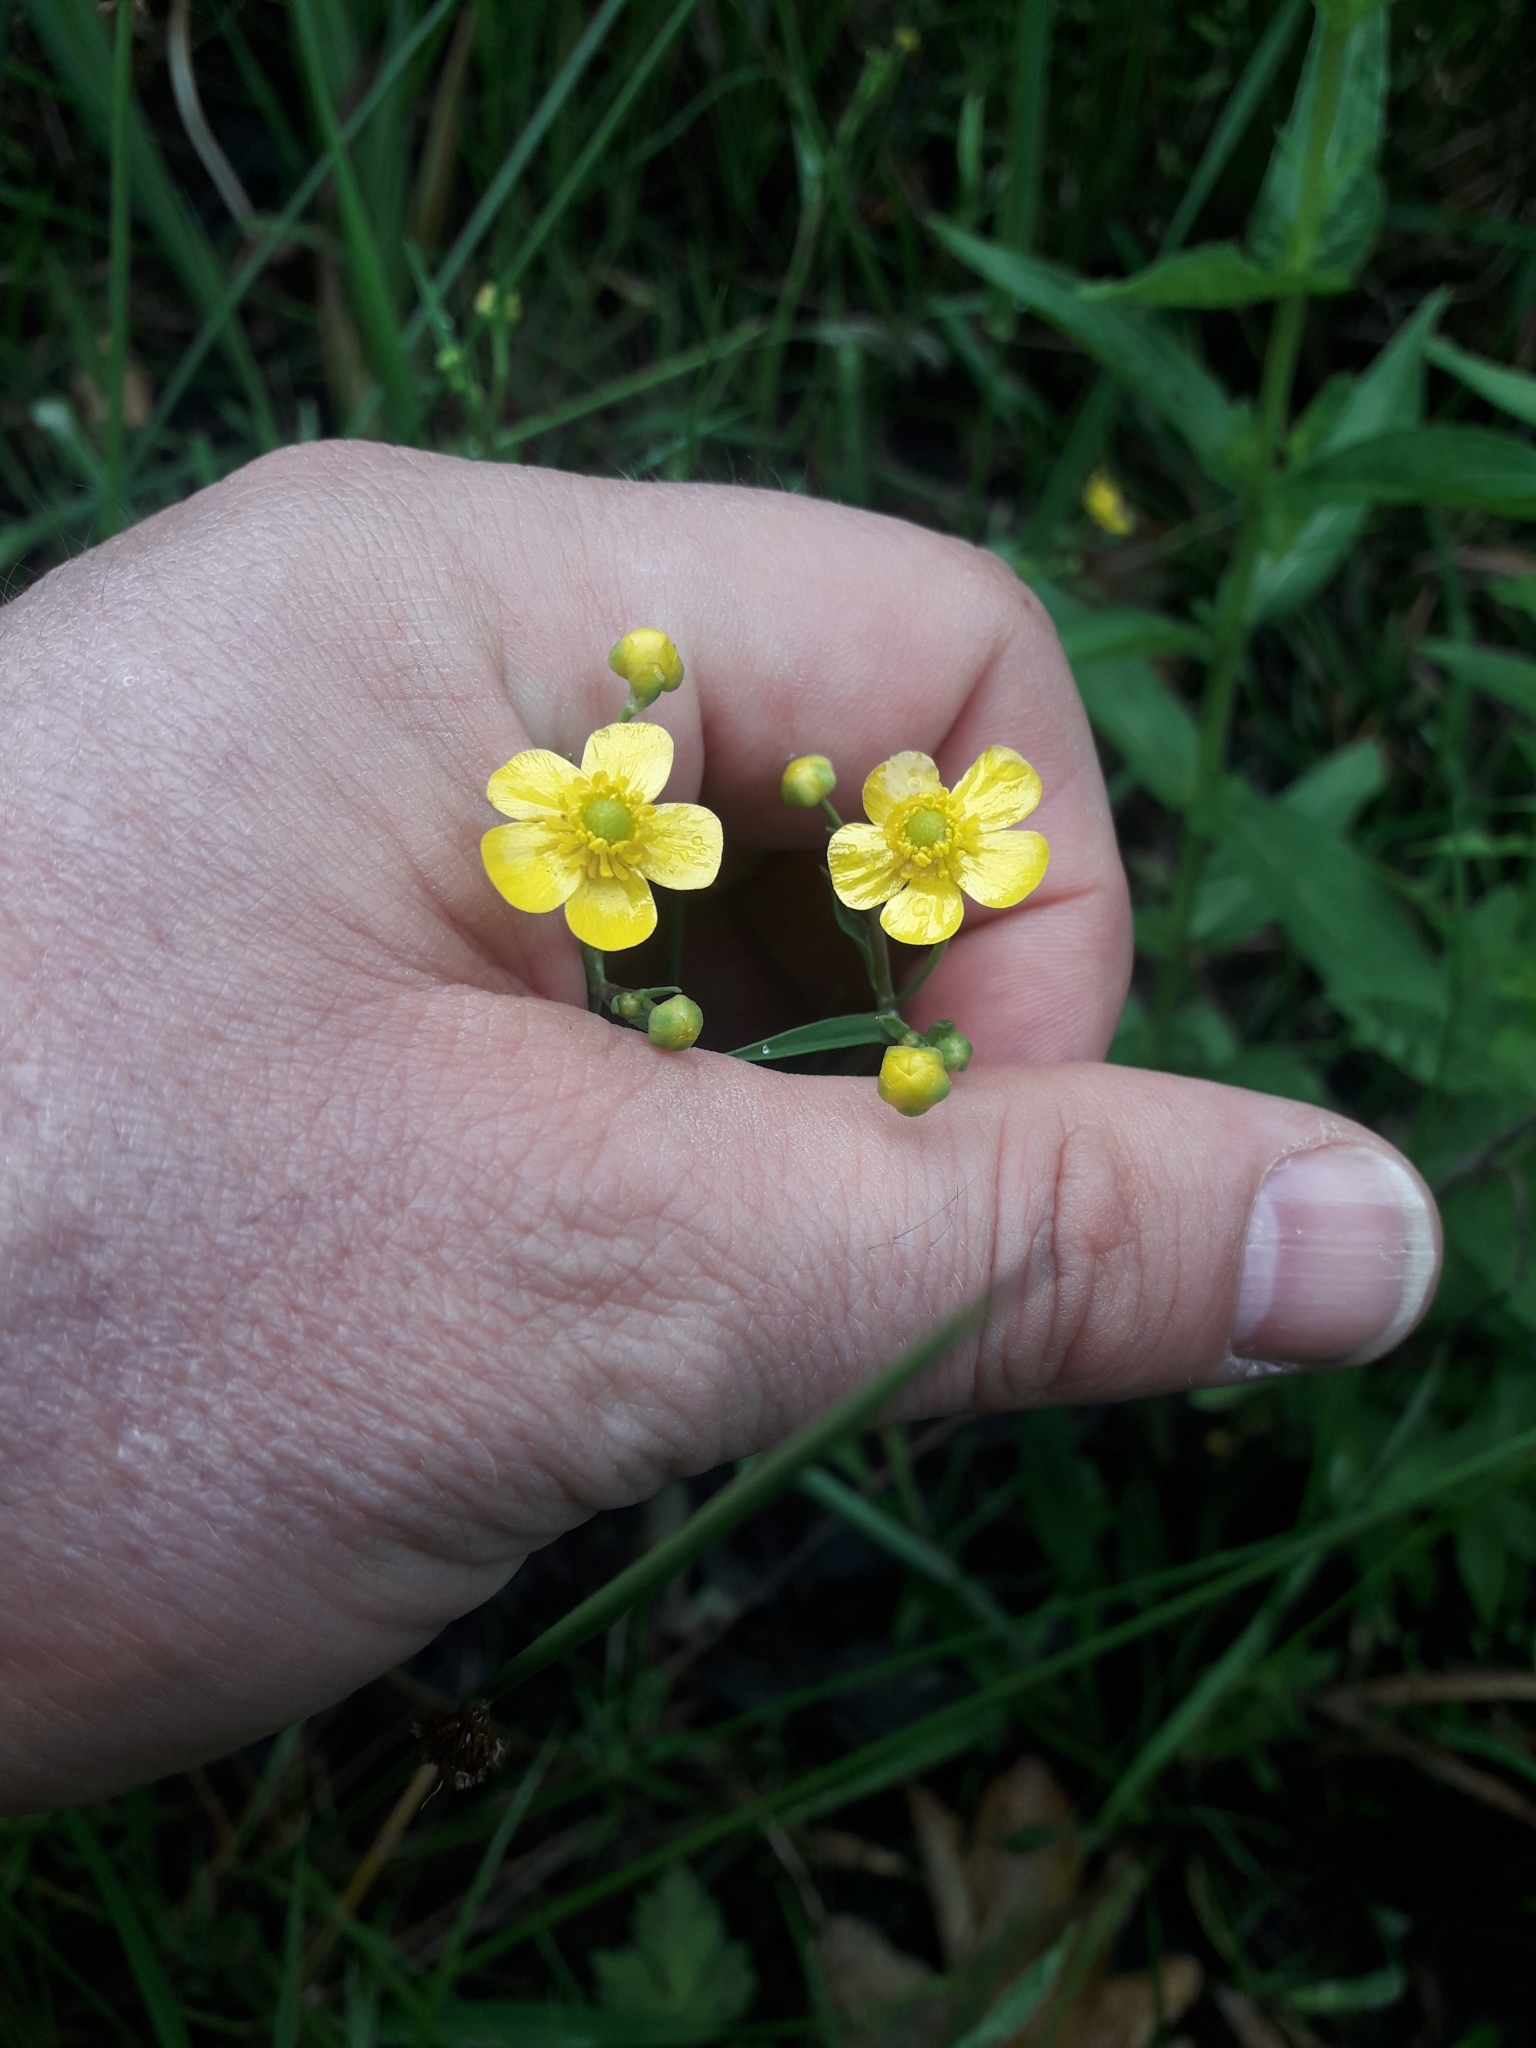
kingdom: Plantae
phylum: Tracheophyta
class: Magnoliopsida
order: Ranunculales
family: Ranunculaceae
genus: Ranunculus
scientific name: Ranunculus flammula
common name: Lesser spearwort
